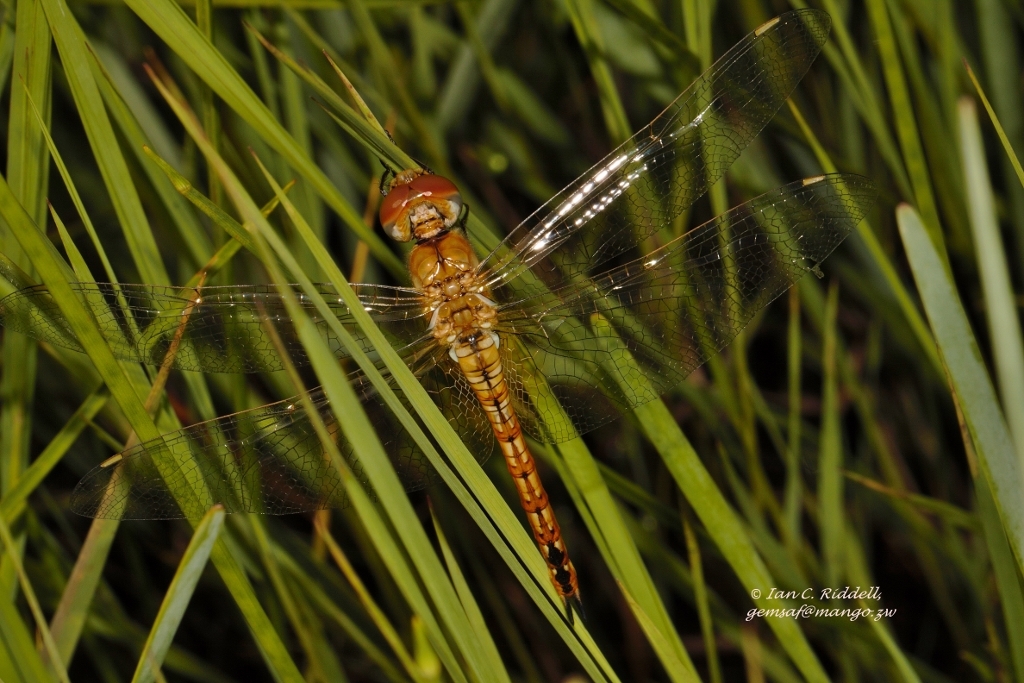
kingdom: Animalia
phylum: Arthropoda
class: Insecta
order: Odonata
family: Libellulidae
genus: Pantala
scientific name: Pantala flavescens
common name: Wandering glider
